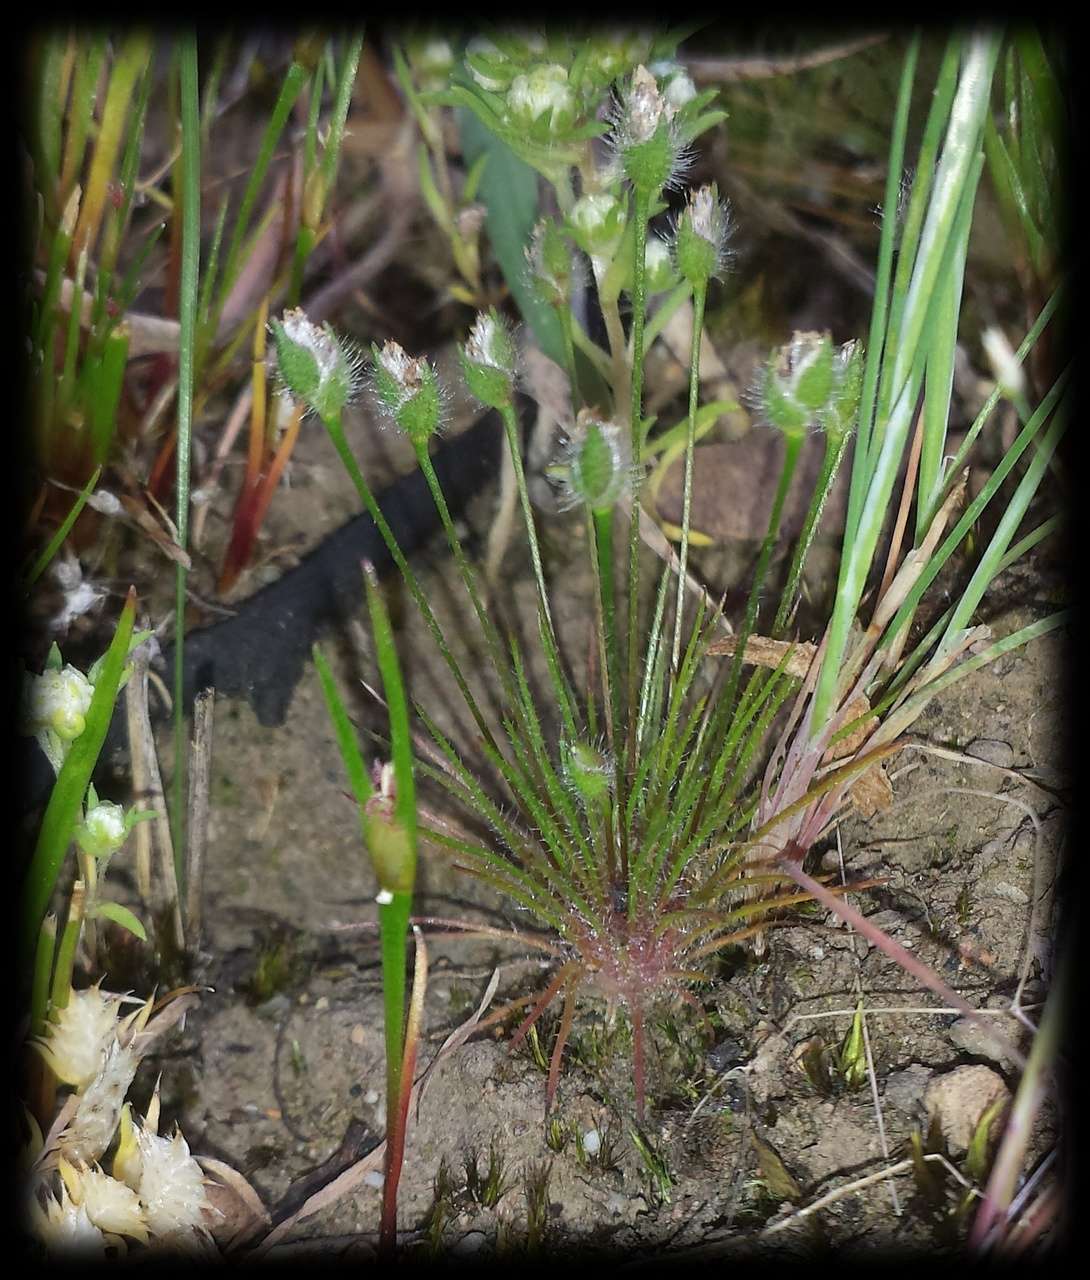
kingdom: Plantae
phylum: Tracheophyta
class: Liliopsida
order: Poales
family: Restionaceae
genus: Centrolepis
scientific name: Centrolepis strigosa
